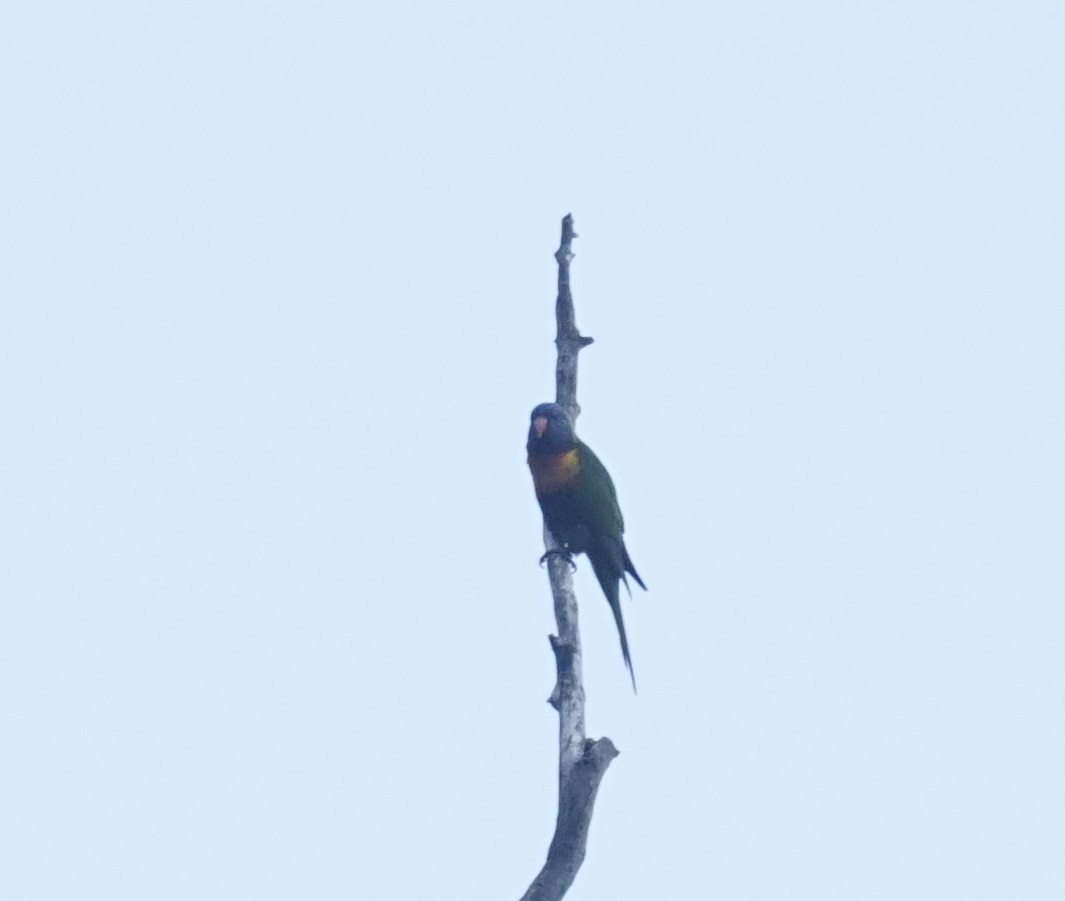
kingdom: Animalia
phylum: Chordata
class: Aves
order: Psittaciformes
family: Psittacidae
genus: Trichoglossus
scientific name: Trichoglossus haematodus
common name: Coconut lorikeet
